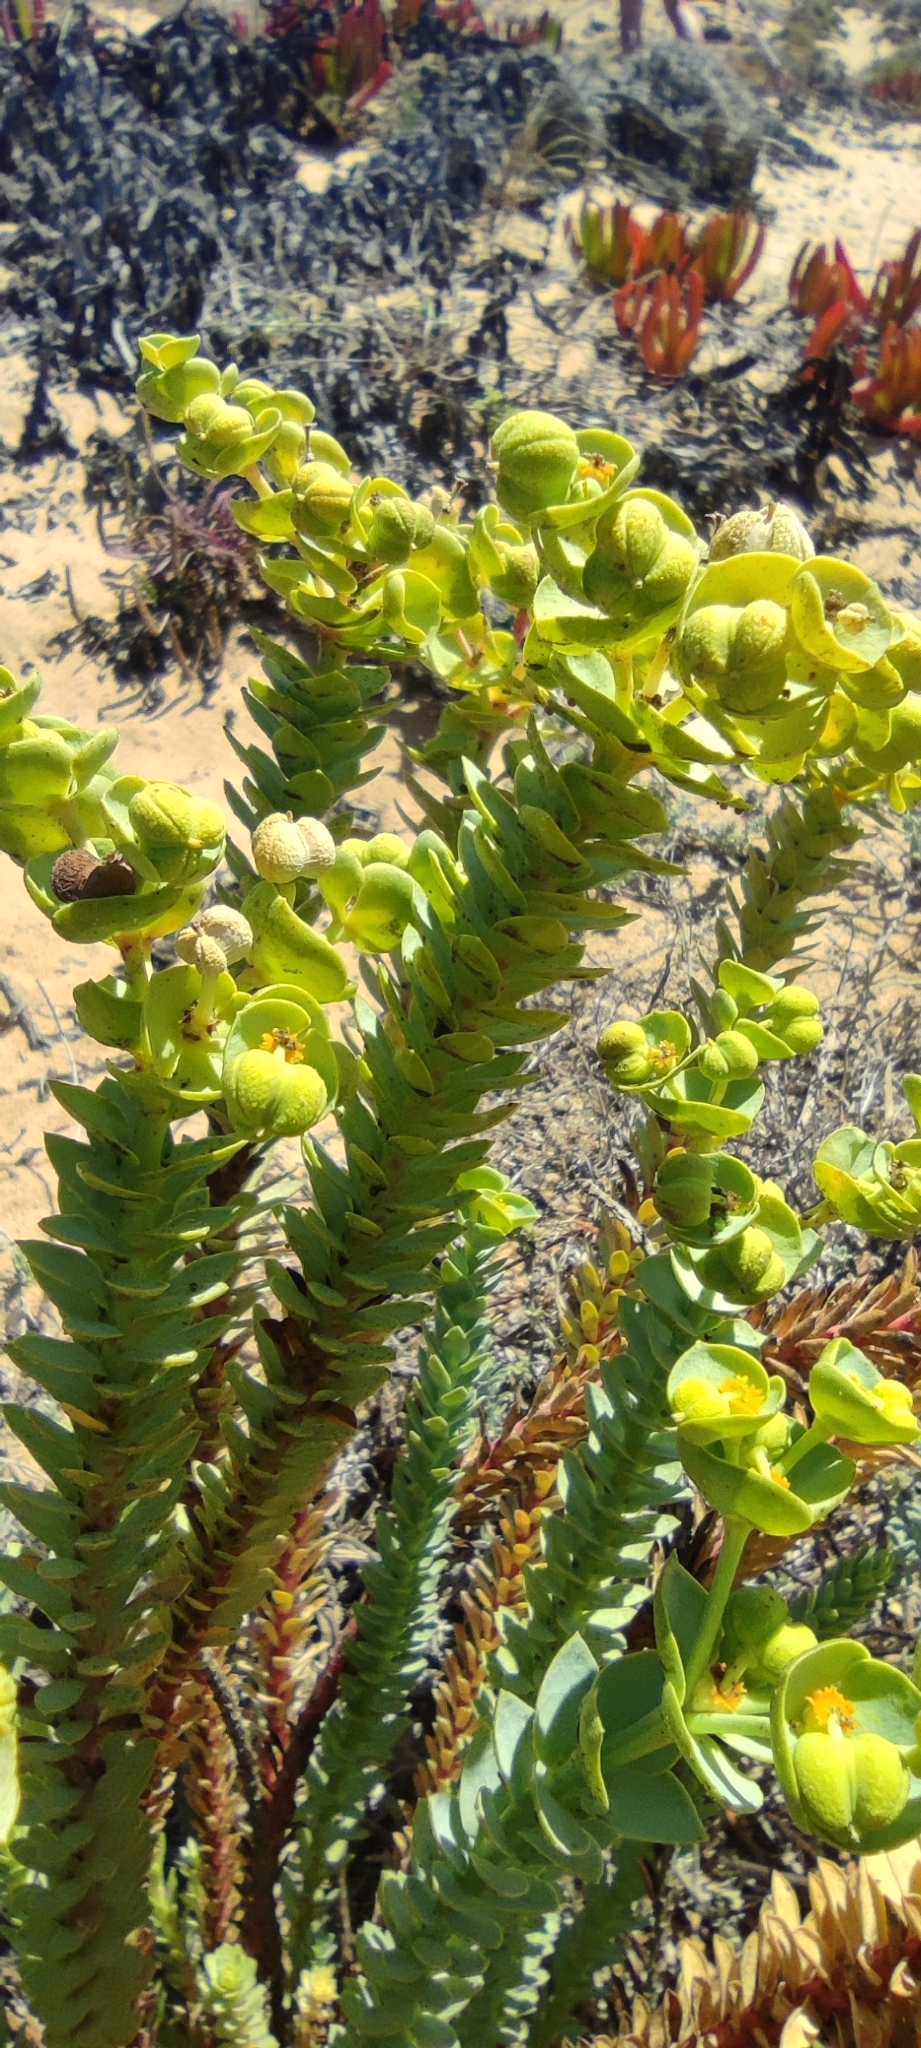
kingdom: Plantae
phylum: Tracheophyta
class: Magnoliopsida
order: Malpighiales
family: Euphorbiaceae
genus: Euphorbia
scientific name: Euphorbia paralias
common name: Sea spurge
